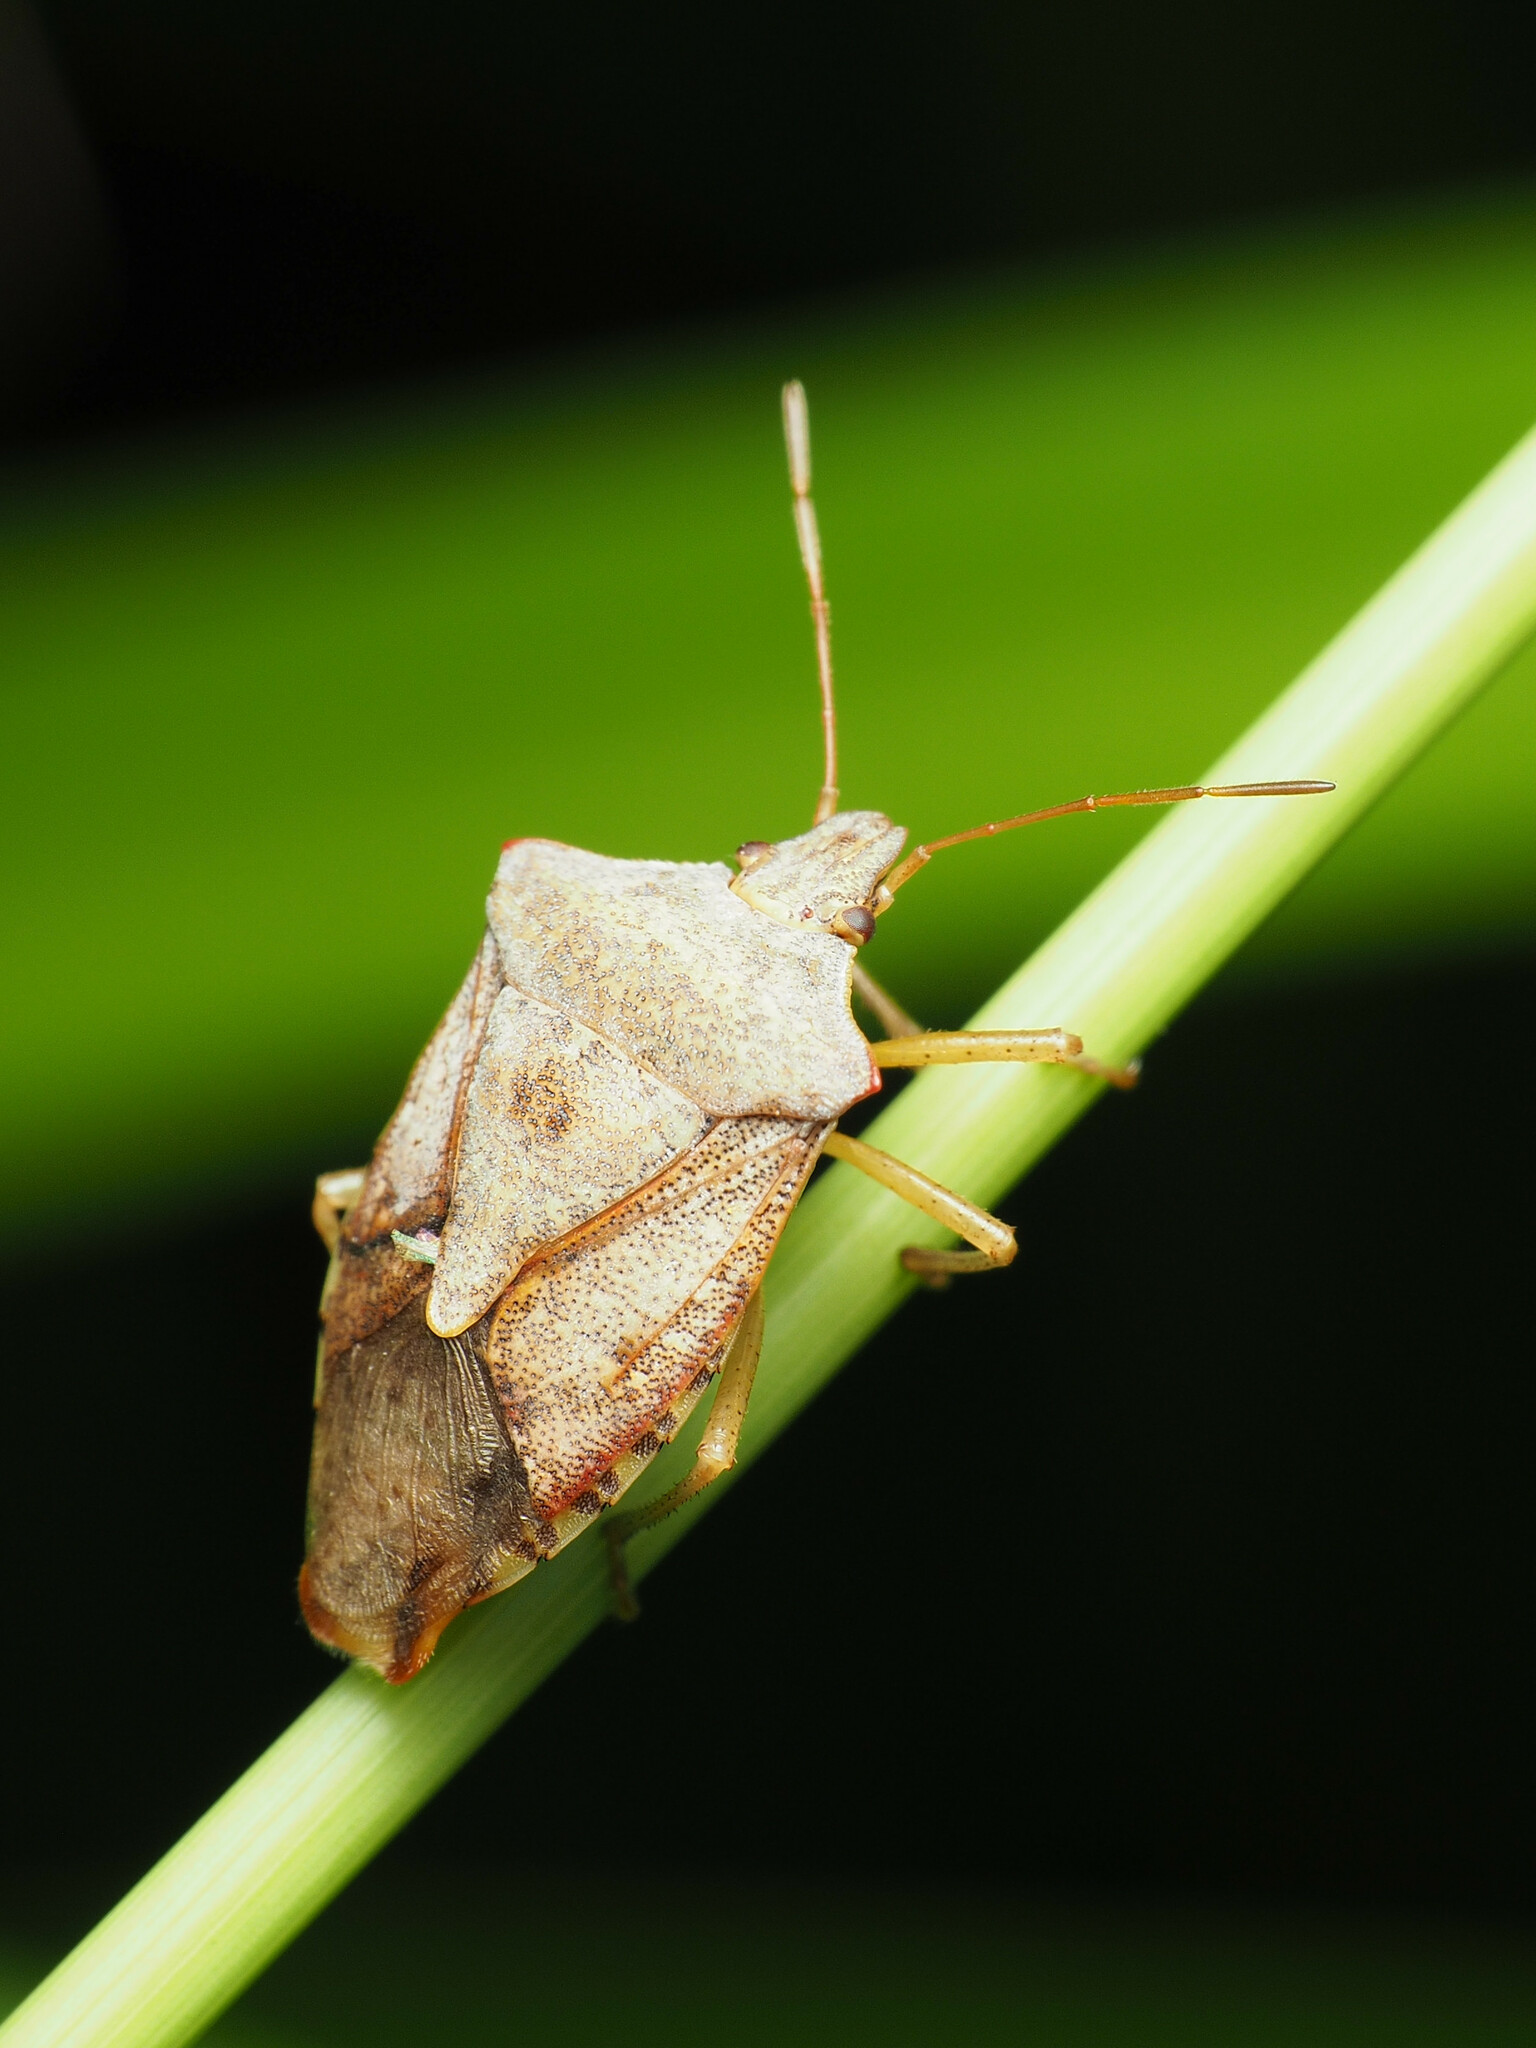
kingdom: Animalia
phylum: Arthropoda
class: Insecta
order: Hemiptera
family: Pentatomidae
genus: Euschistus
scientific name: Euschistus servus
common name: Brown stink bug
